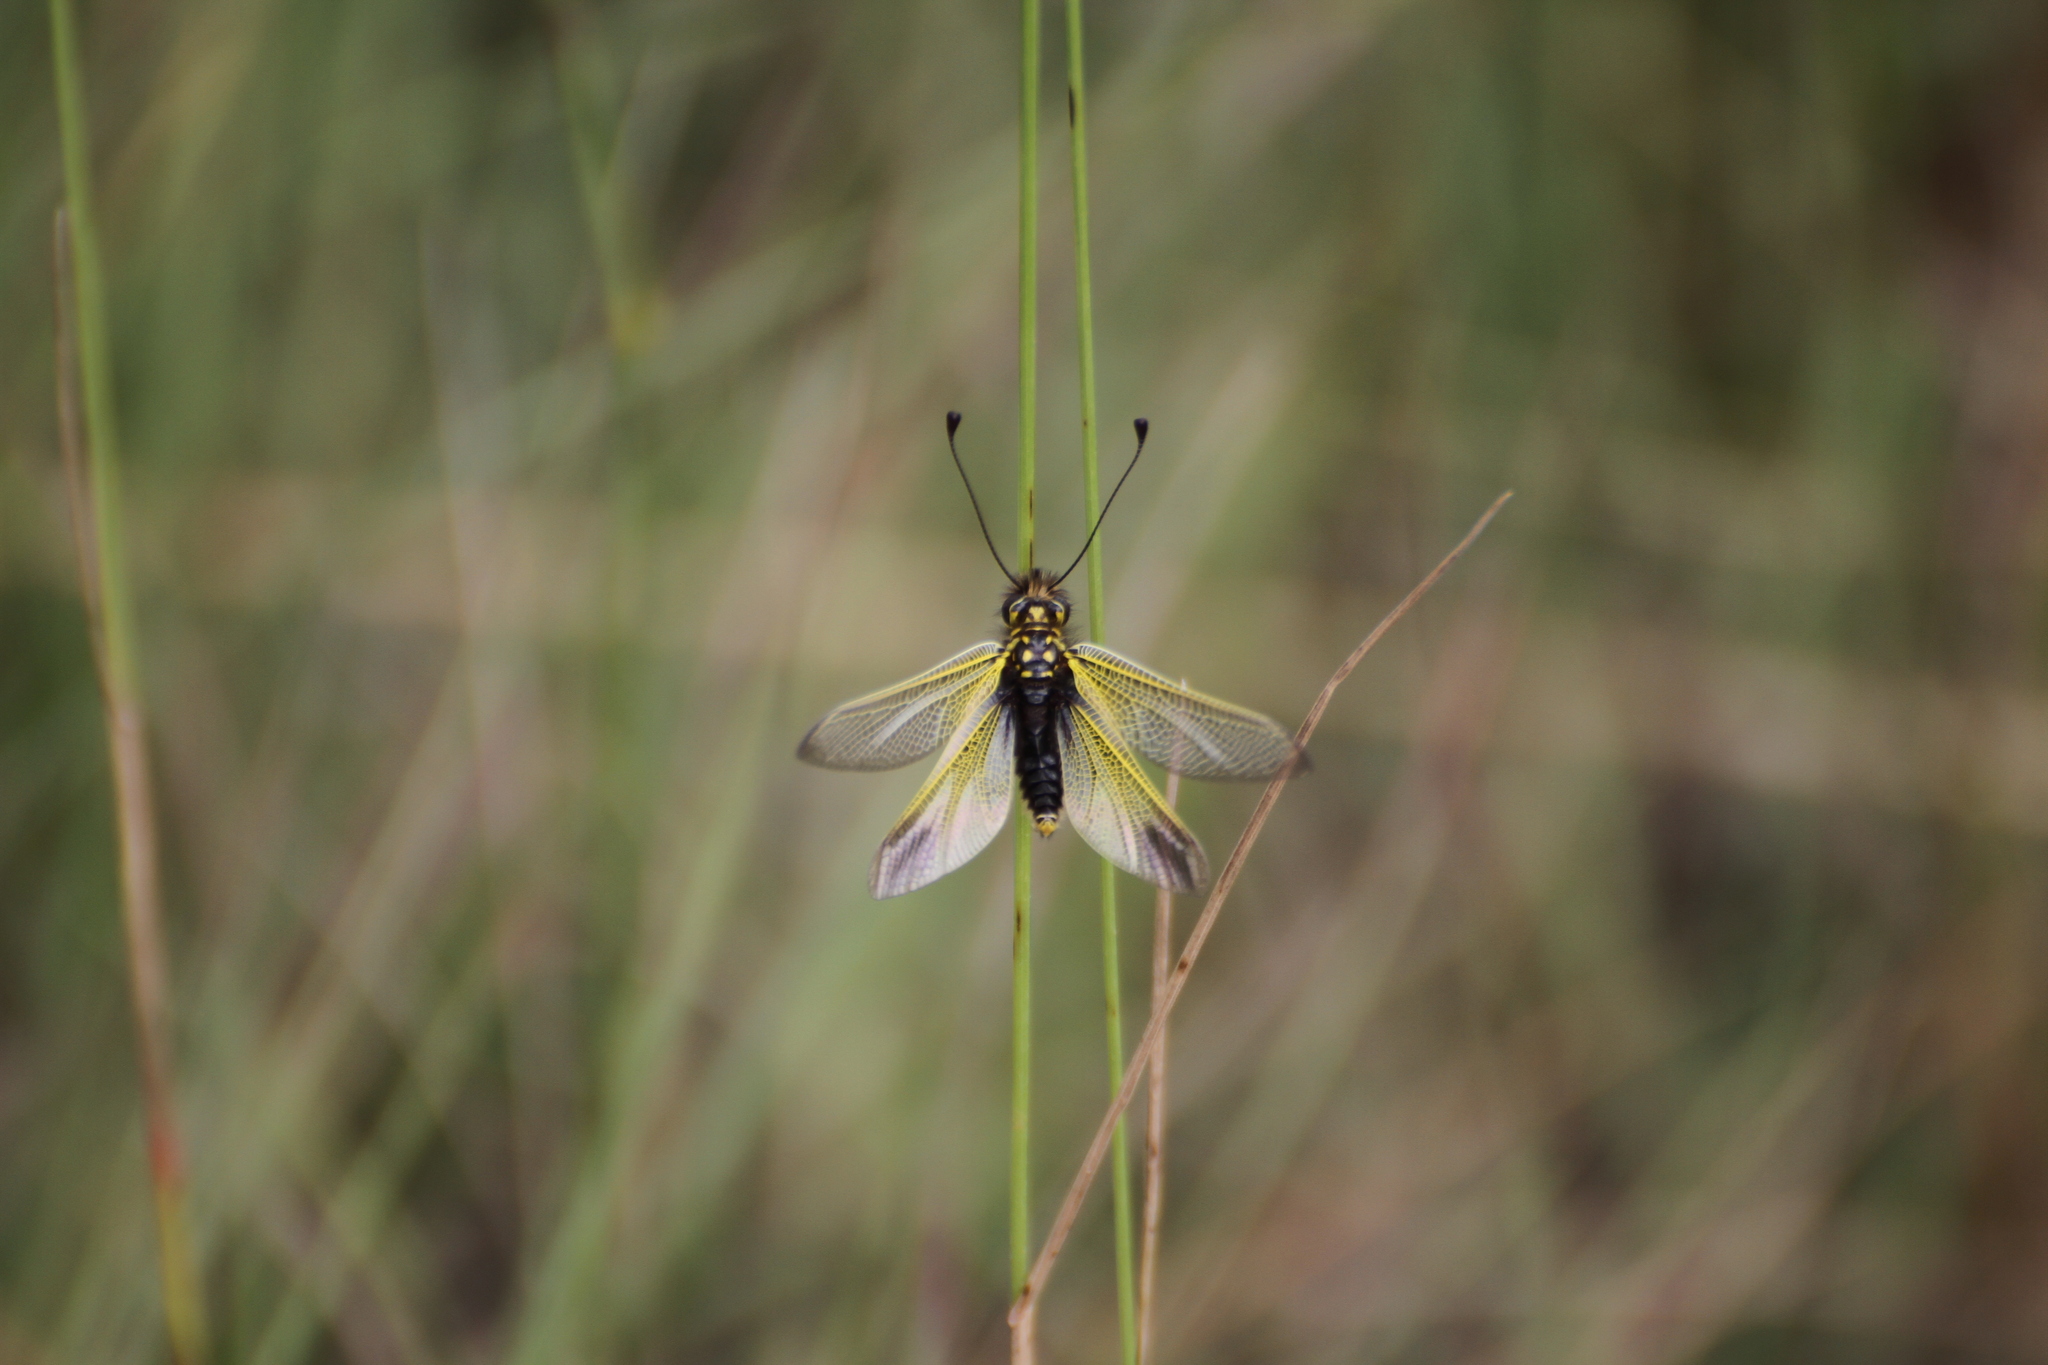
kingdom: Animalia
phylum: Arthropoda
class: Insecta
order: Neuroptera
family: Ascalaphidae
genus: Libelloides
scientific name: Libelloides ictericus
